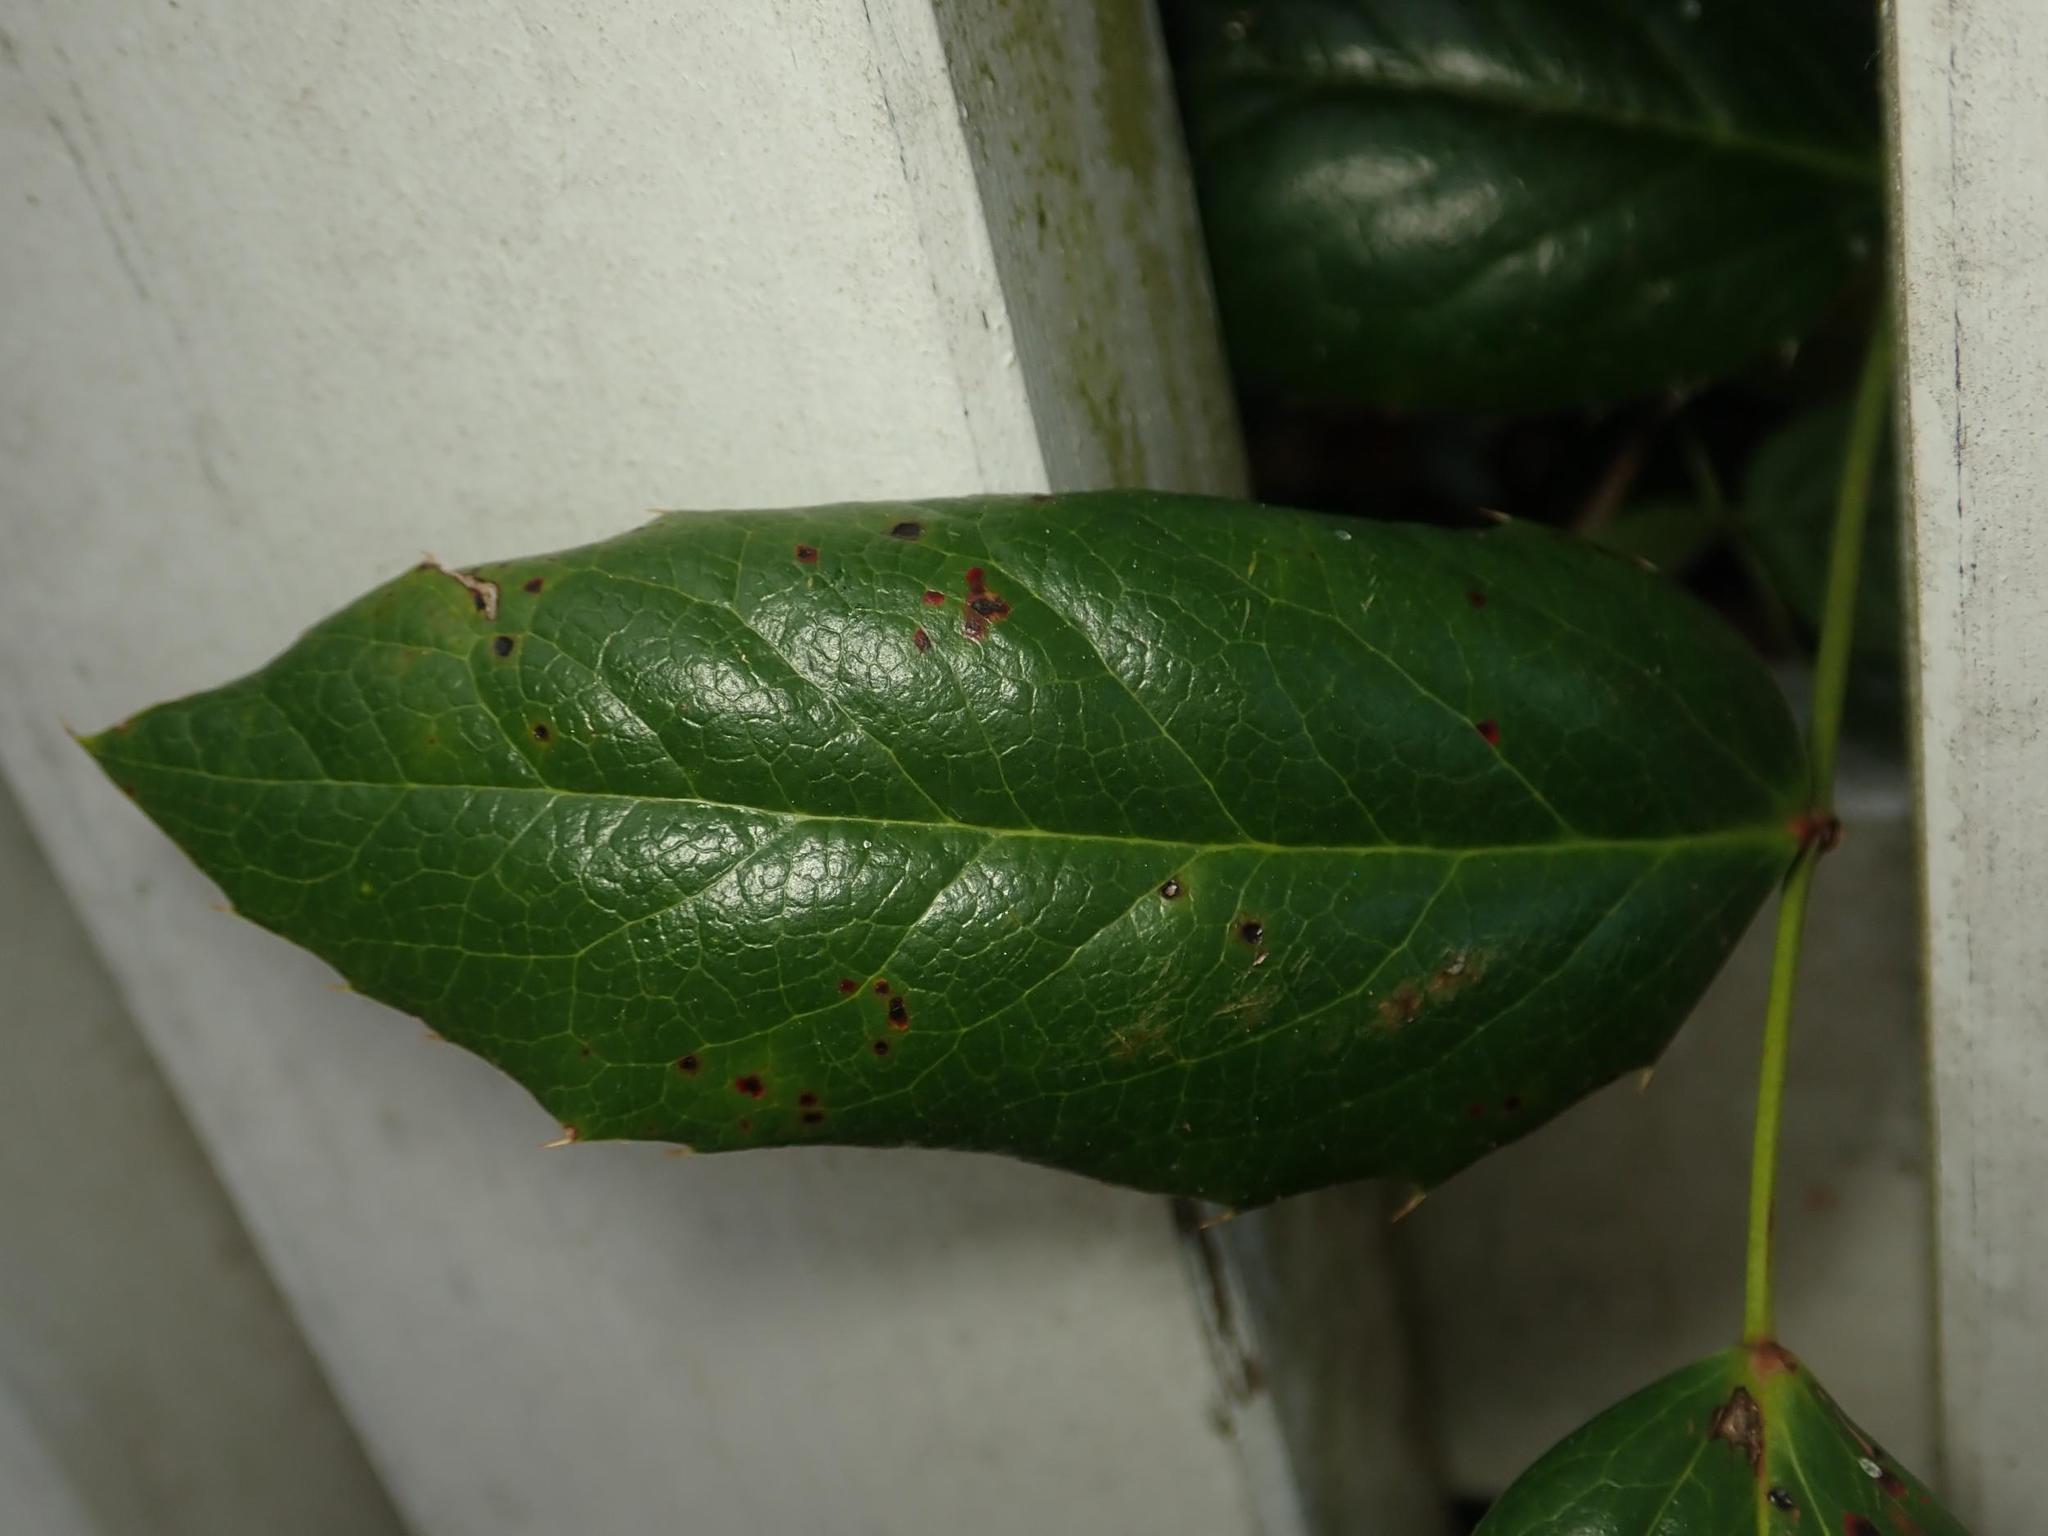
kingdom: Plantae
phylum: Tracheophyta
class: Magnoliopsida
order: Ranunculales
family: Berberidaceae
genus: Mahonia
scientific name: Mahonia aquifolium
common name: Oregon-grape
